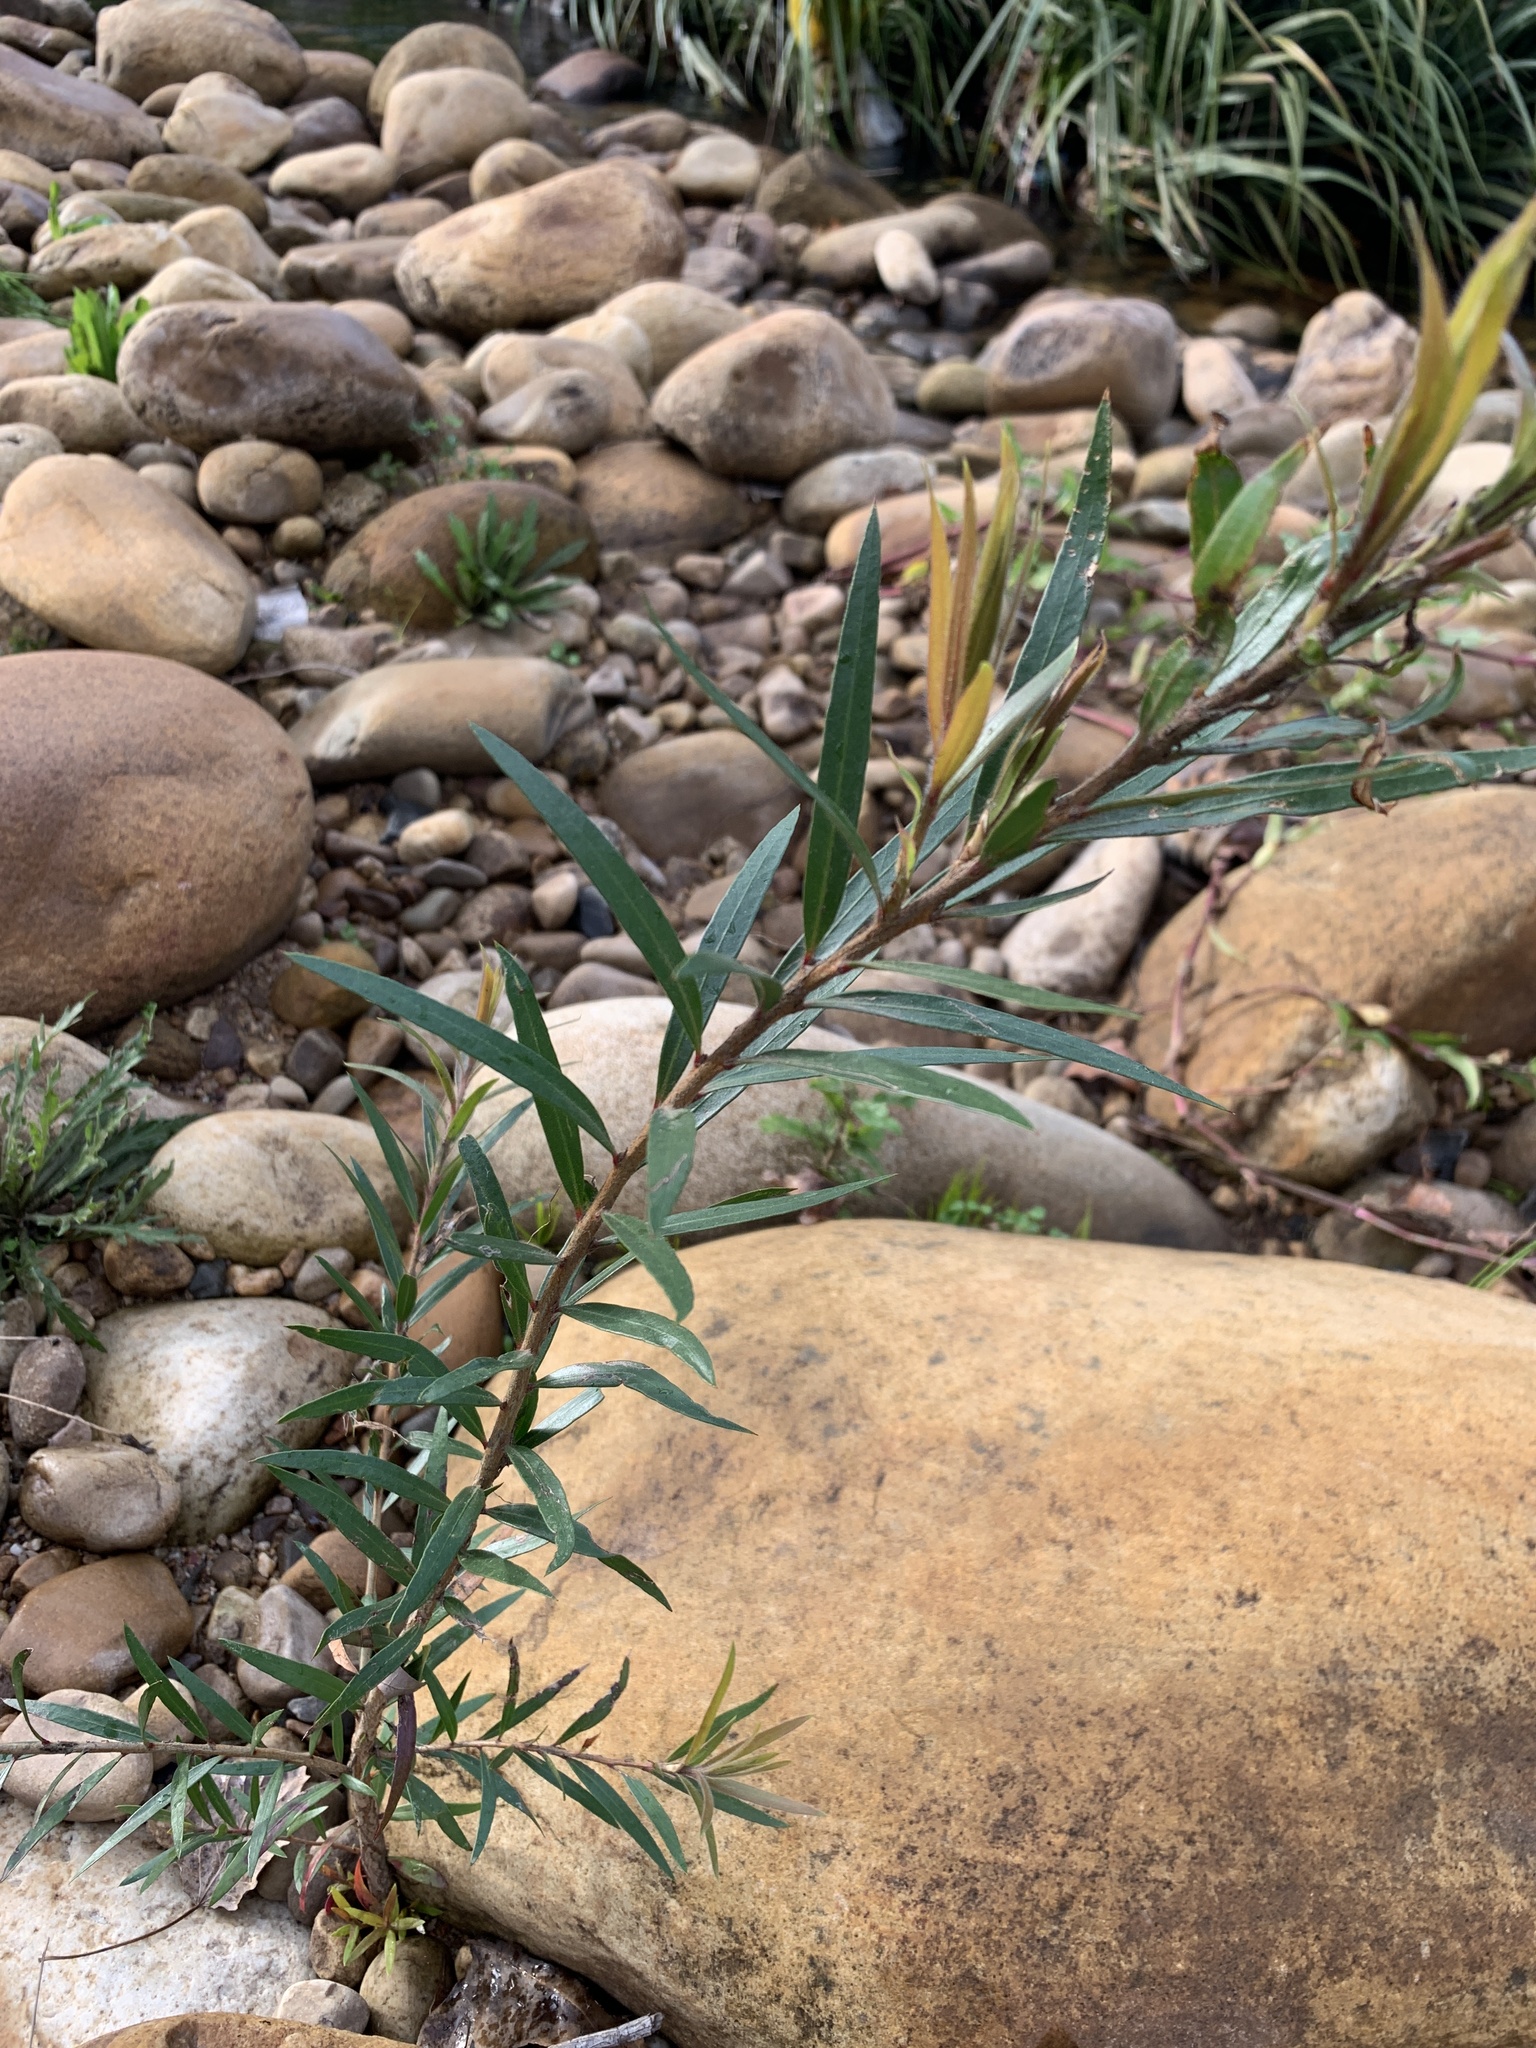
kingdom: Plantae
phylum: Tracheophyta
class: Magnoliopsida
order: Myrtales
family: Myrtaceae
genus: Callistemon
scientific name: Callistemon viminalis
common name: Drooping bottlebrush
